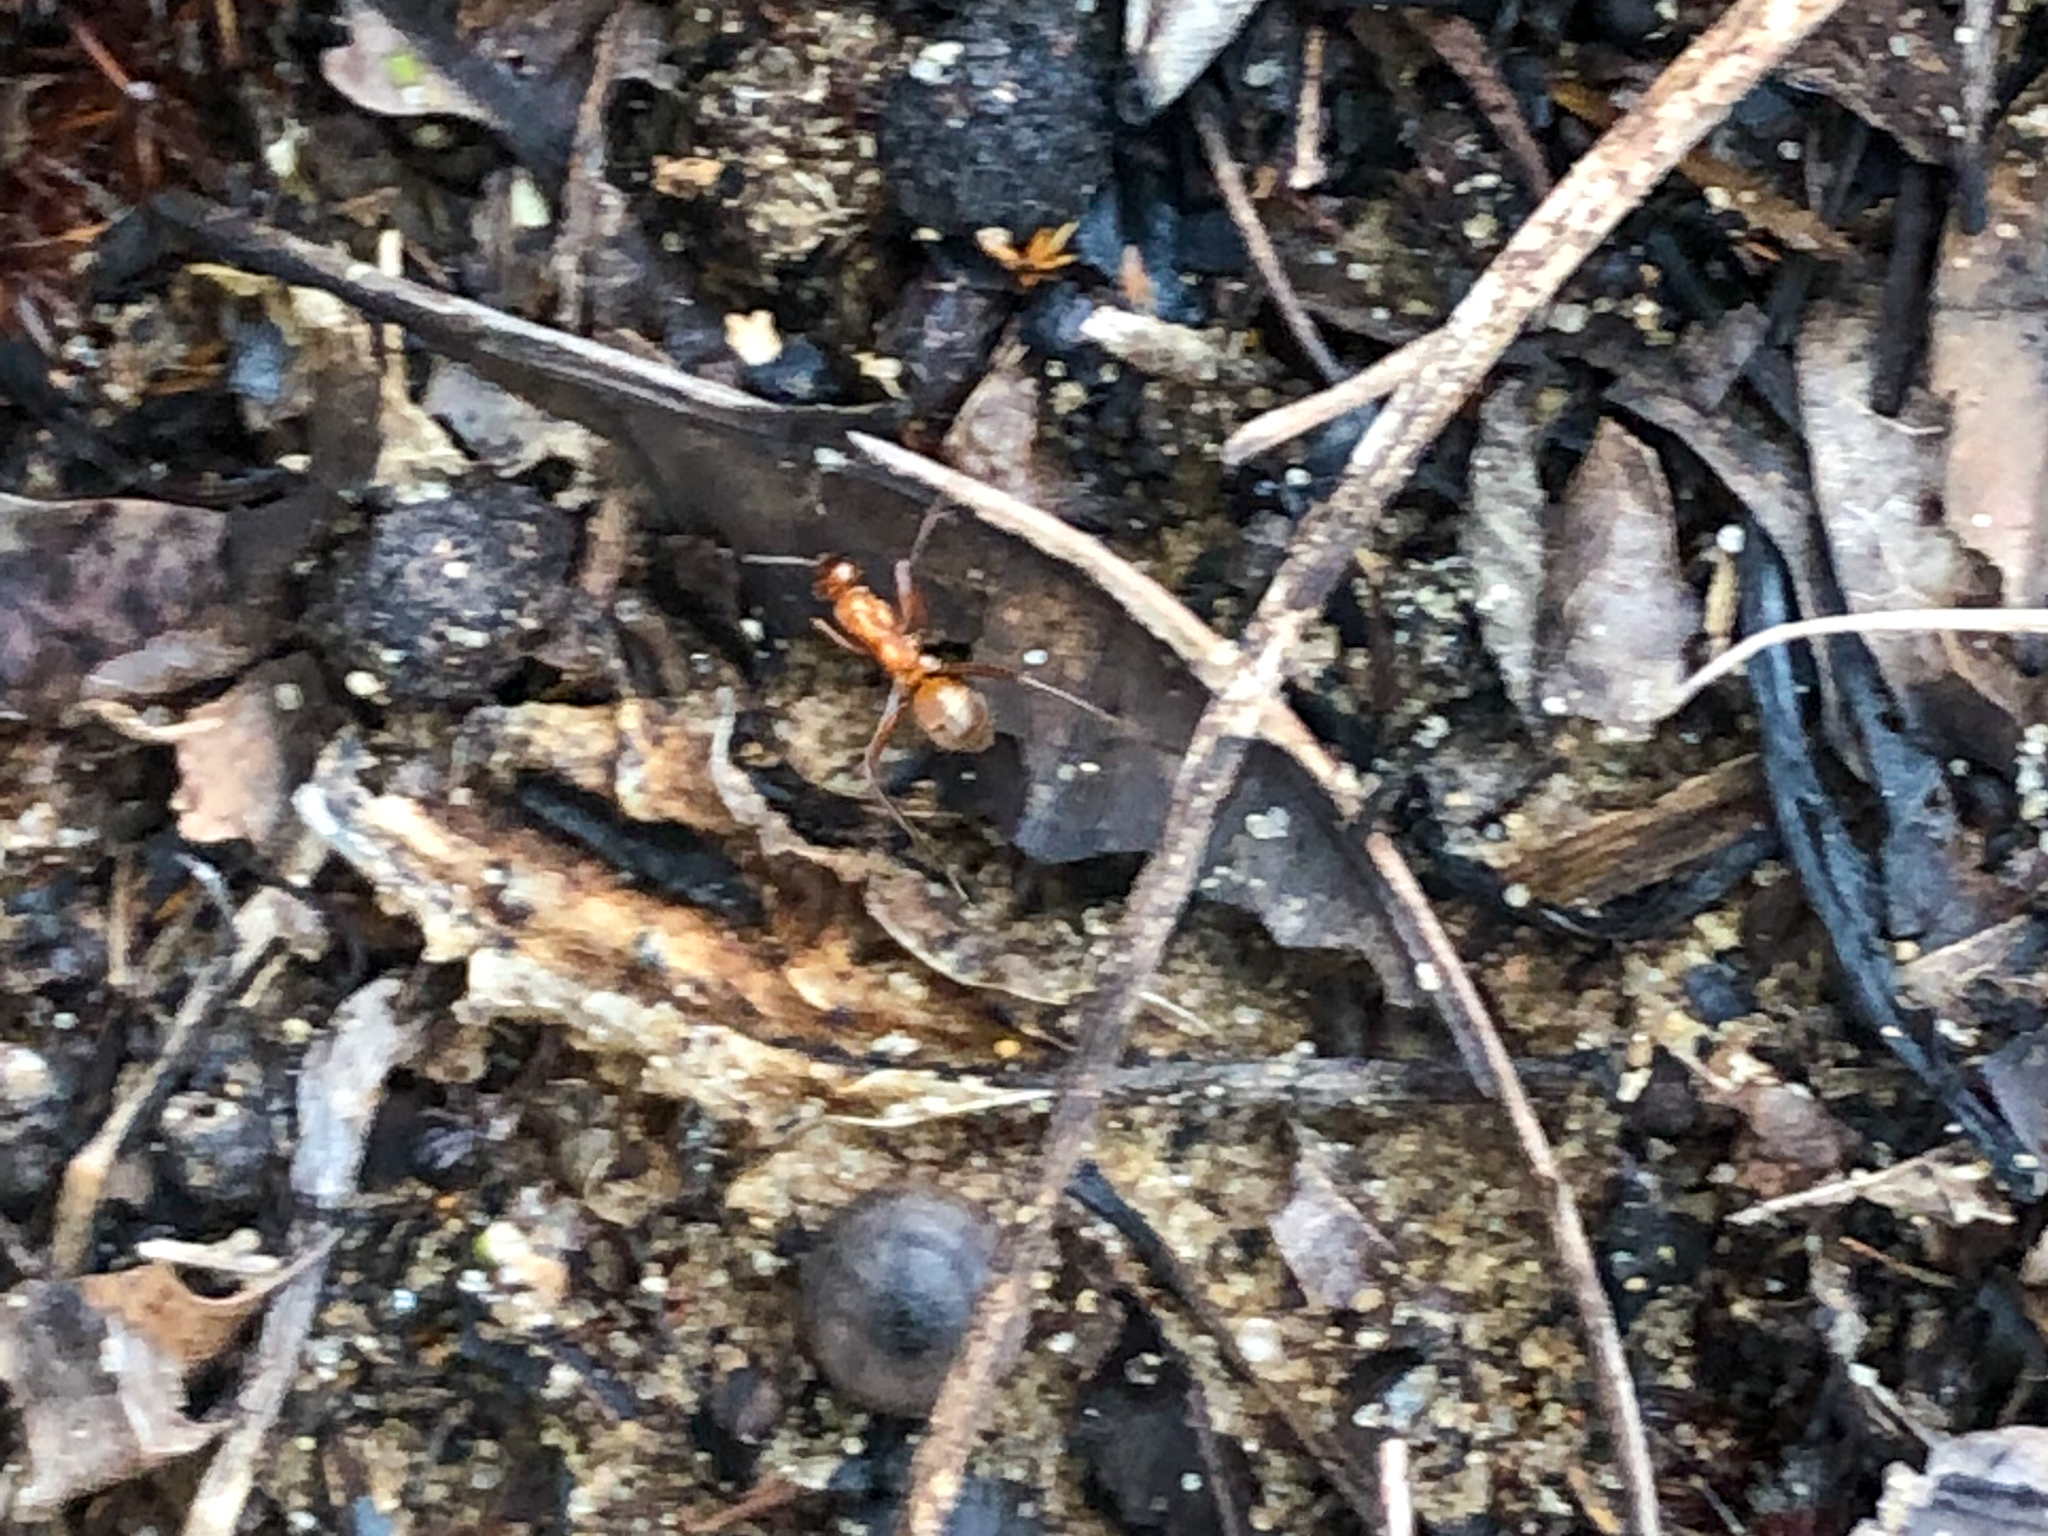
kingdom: Animalia
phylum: Arthropoda
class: Insecta
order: Hymenoptera
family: Formicidae
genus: Formica
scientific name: Formica dolosa
